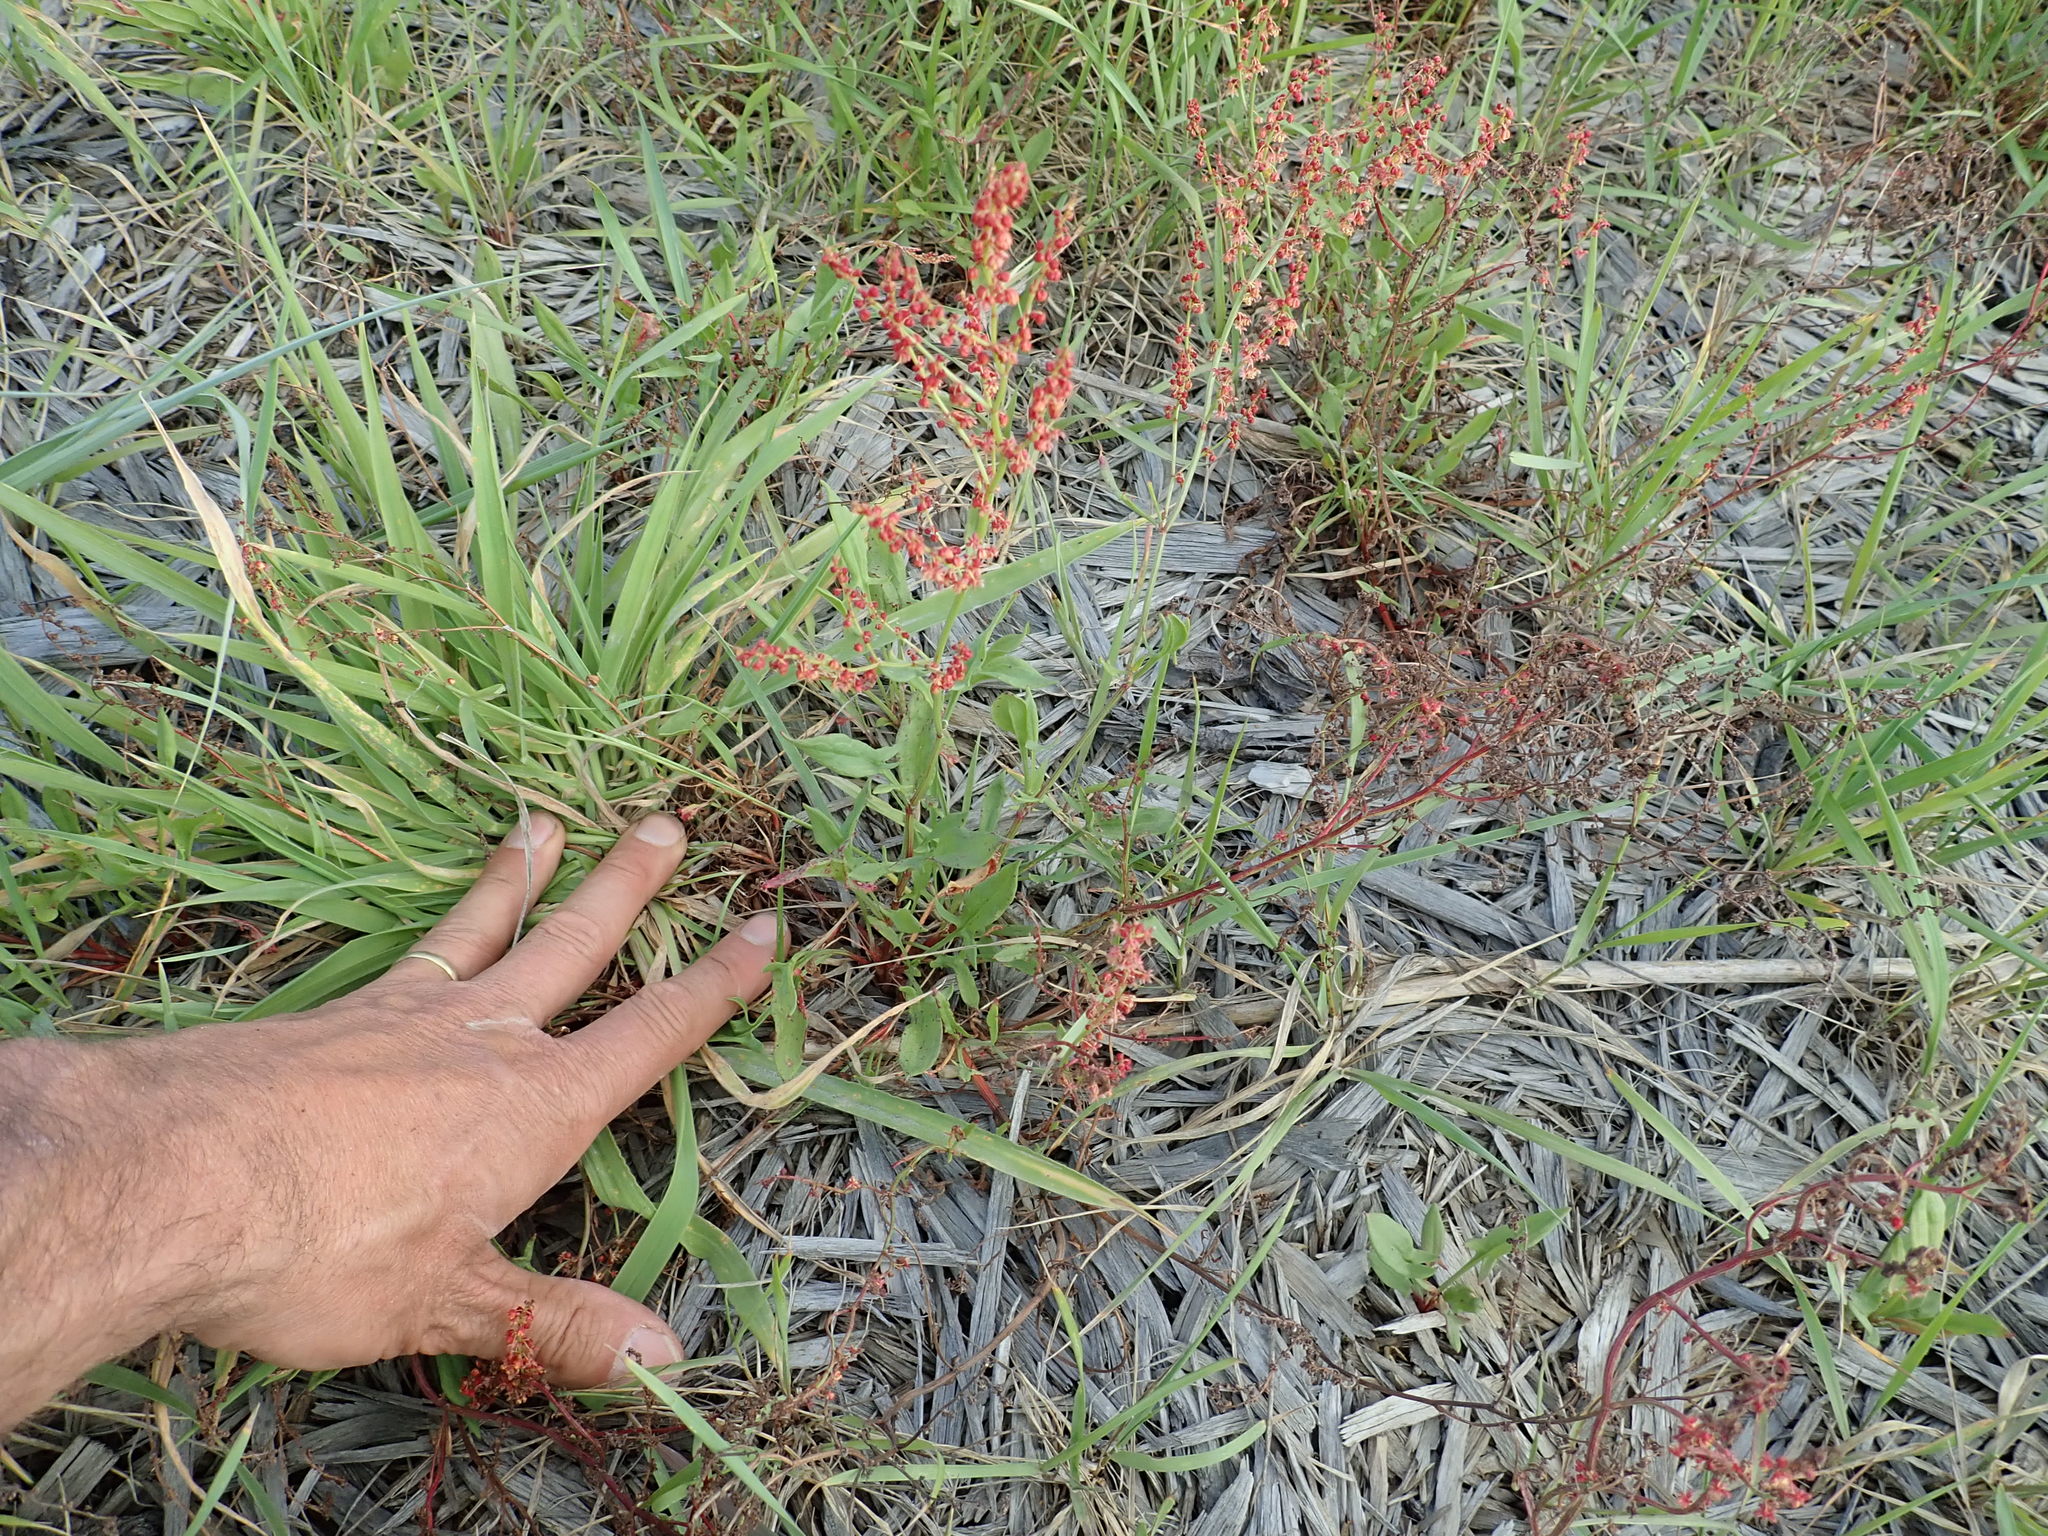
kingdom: Plantae
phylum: Tracheophyta
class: Magnoliopsida
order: Caryophyllales
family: Polygonaceae
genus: Rumex
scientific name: Rumex acetosella
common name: Common sheep sorrel
